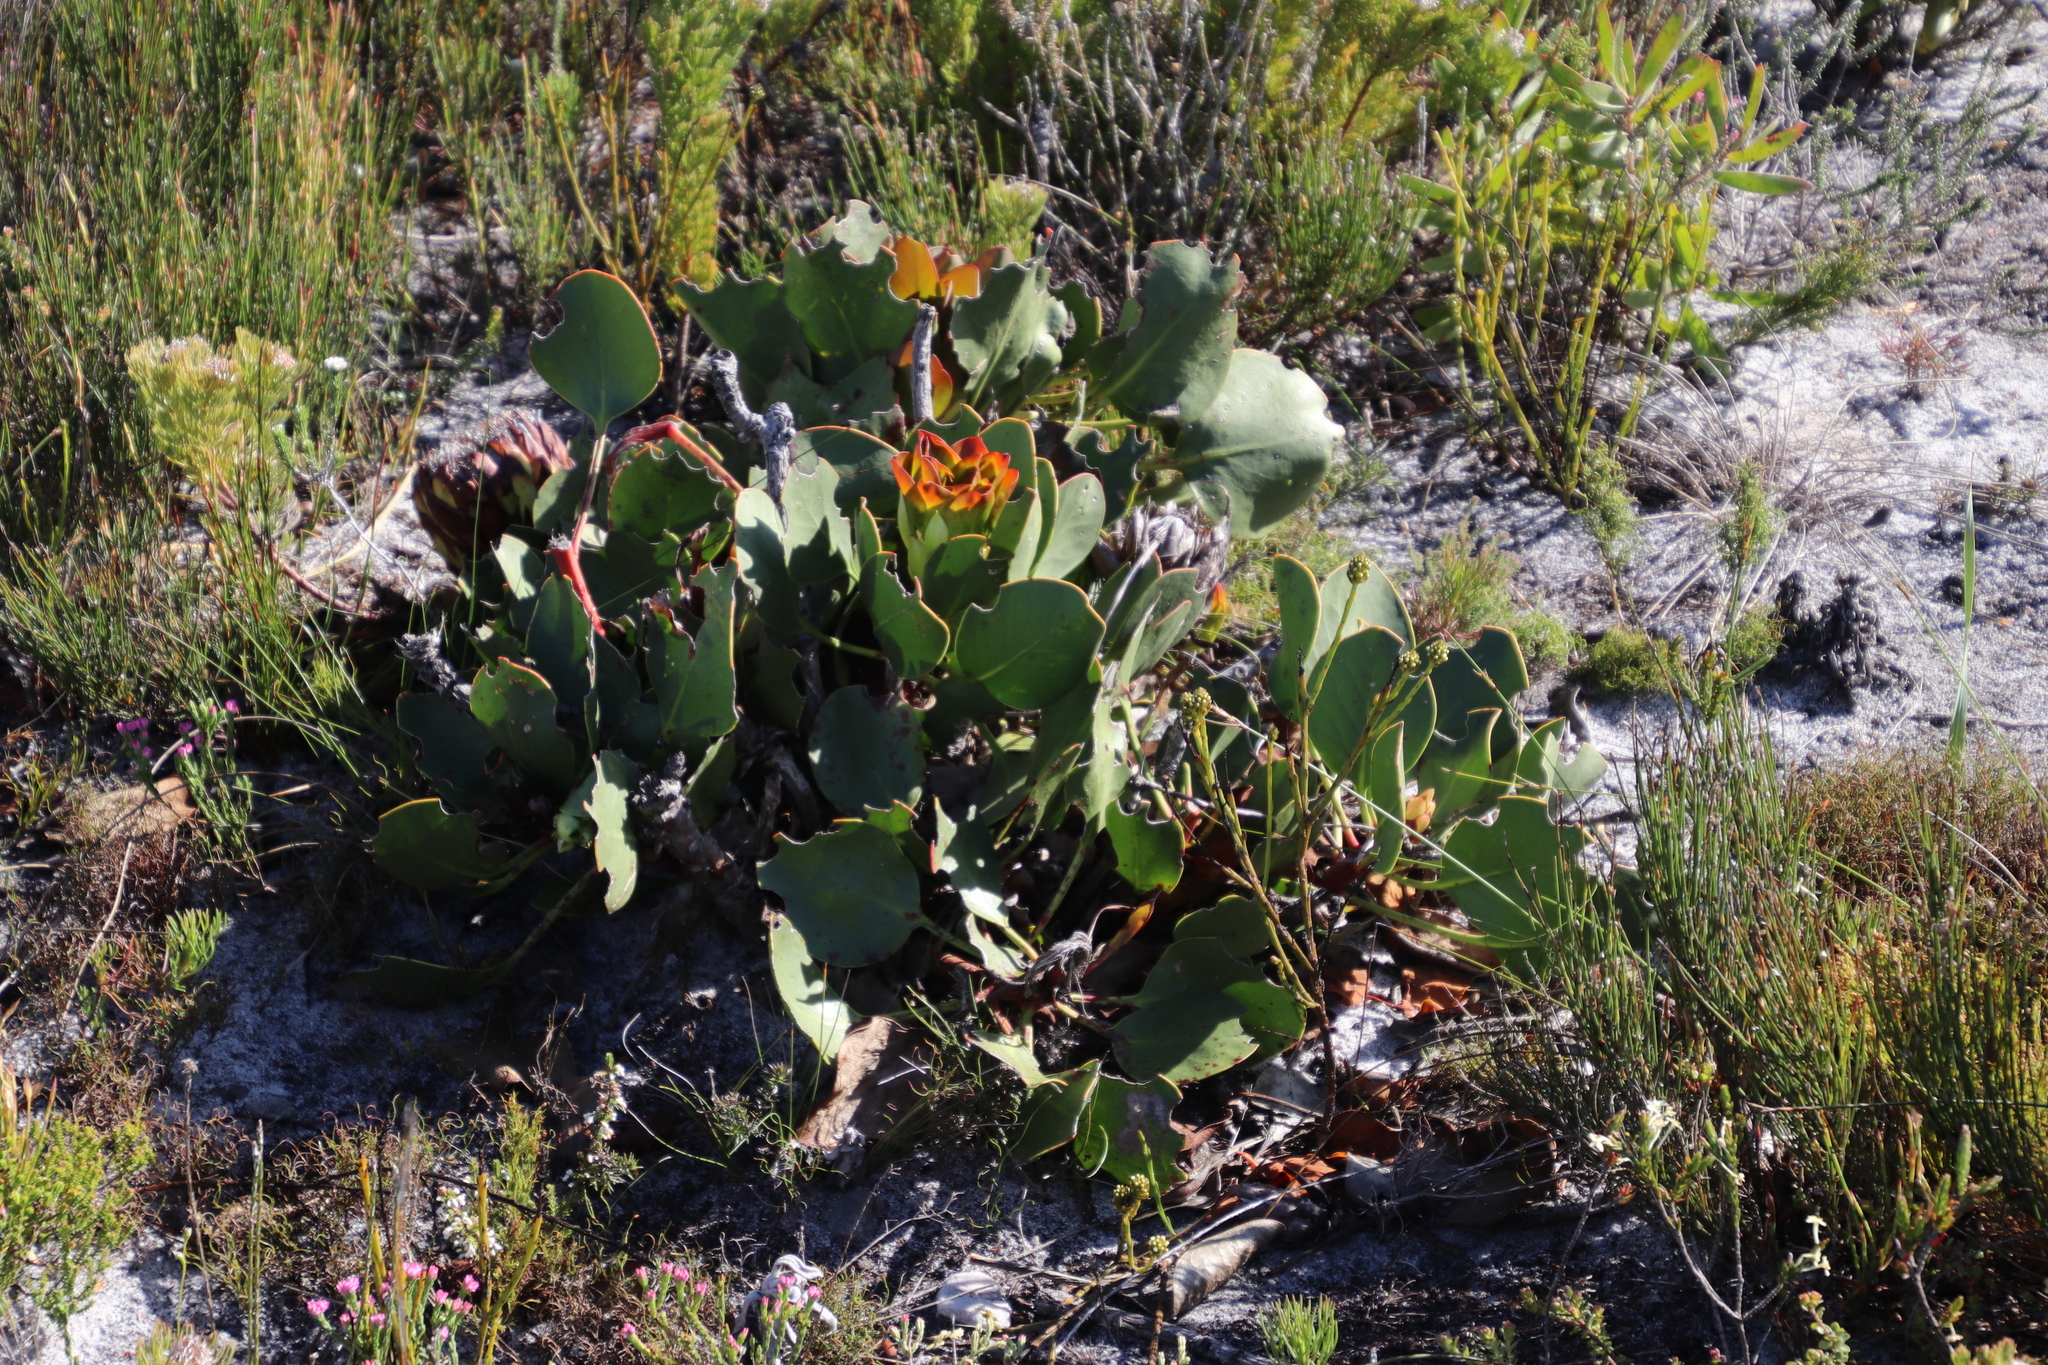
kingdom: Plantae
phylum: Tracheophyta
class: Magnoliopsida
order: Proteales
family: Proteaceae
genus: Protea
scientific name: Protea cynaroides
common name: King protea
